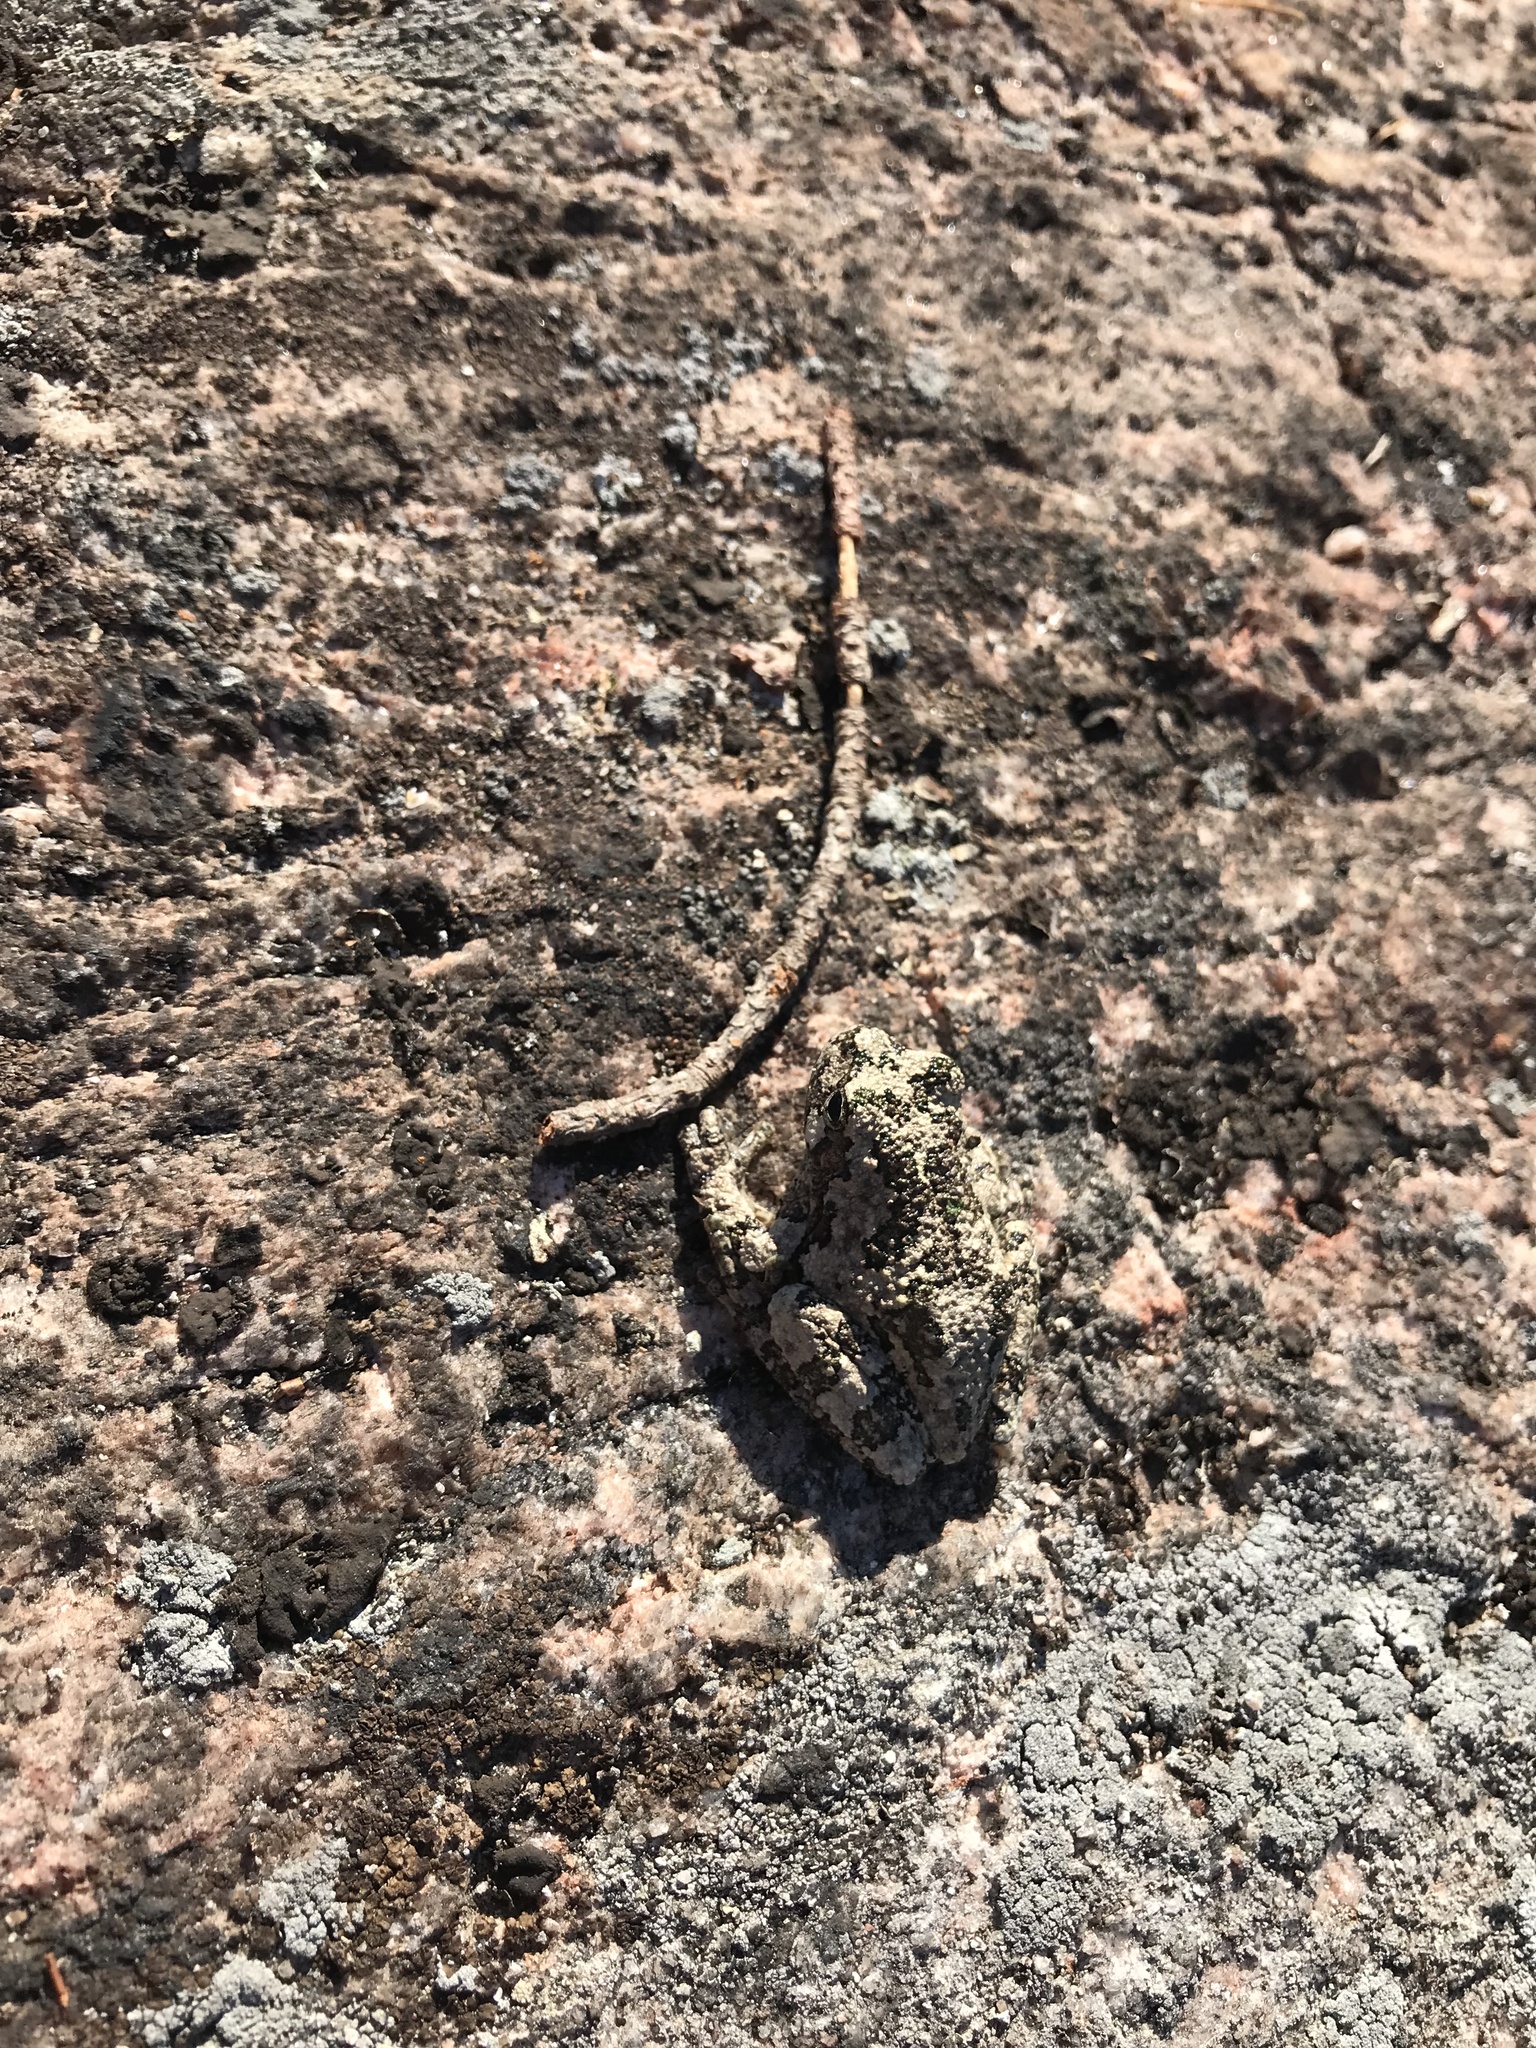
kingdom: Animalia
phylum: Chordata
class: Amphibia
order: Anura
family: Hylidae
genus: Dryophytes
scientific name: Dryophytes versicolor
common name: Gray treefrog
